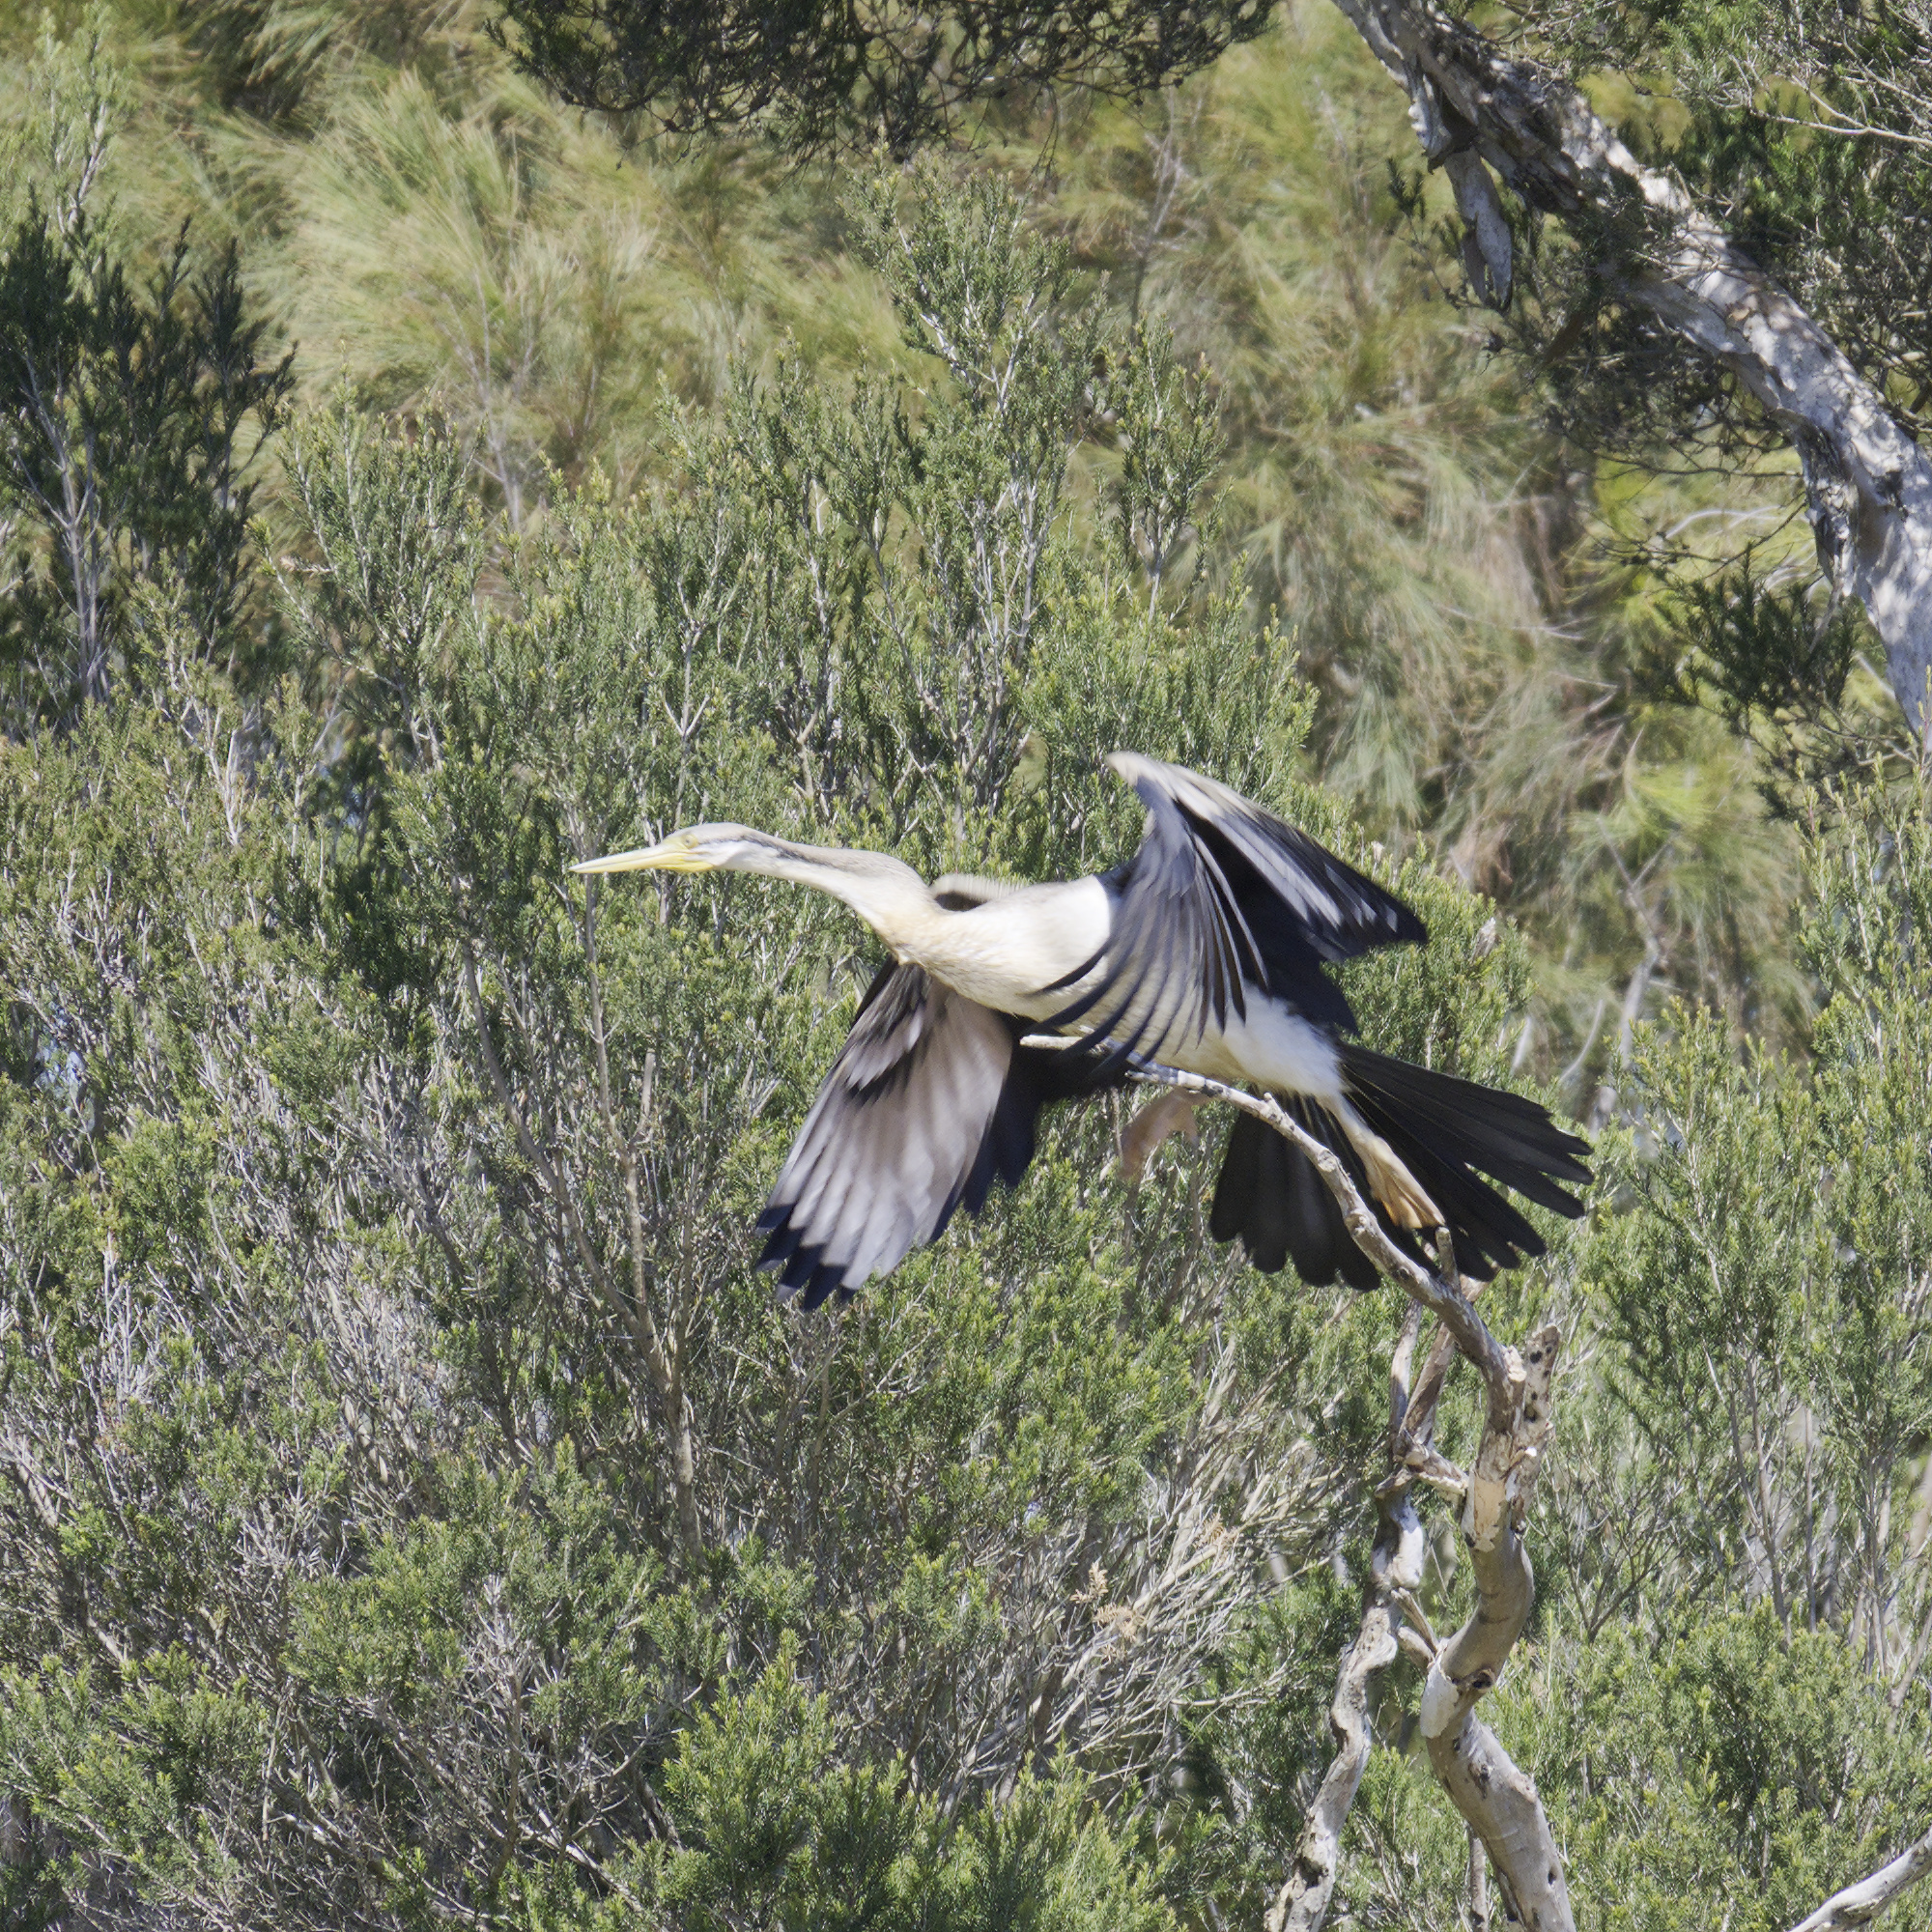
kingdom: Animalia
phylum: Chordata
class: Aves
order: Suliformes
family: Anhingidae
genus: Anhinga
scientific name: Anhinga novaehollandiae
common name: Australasian darter
